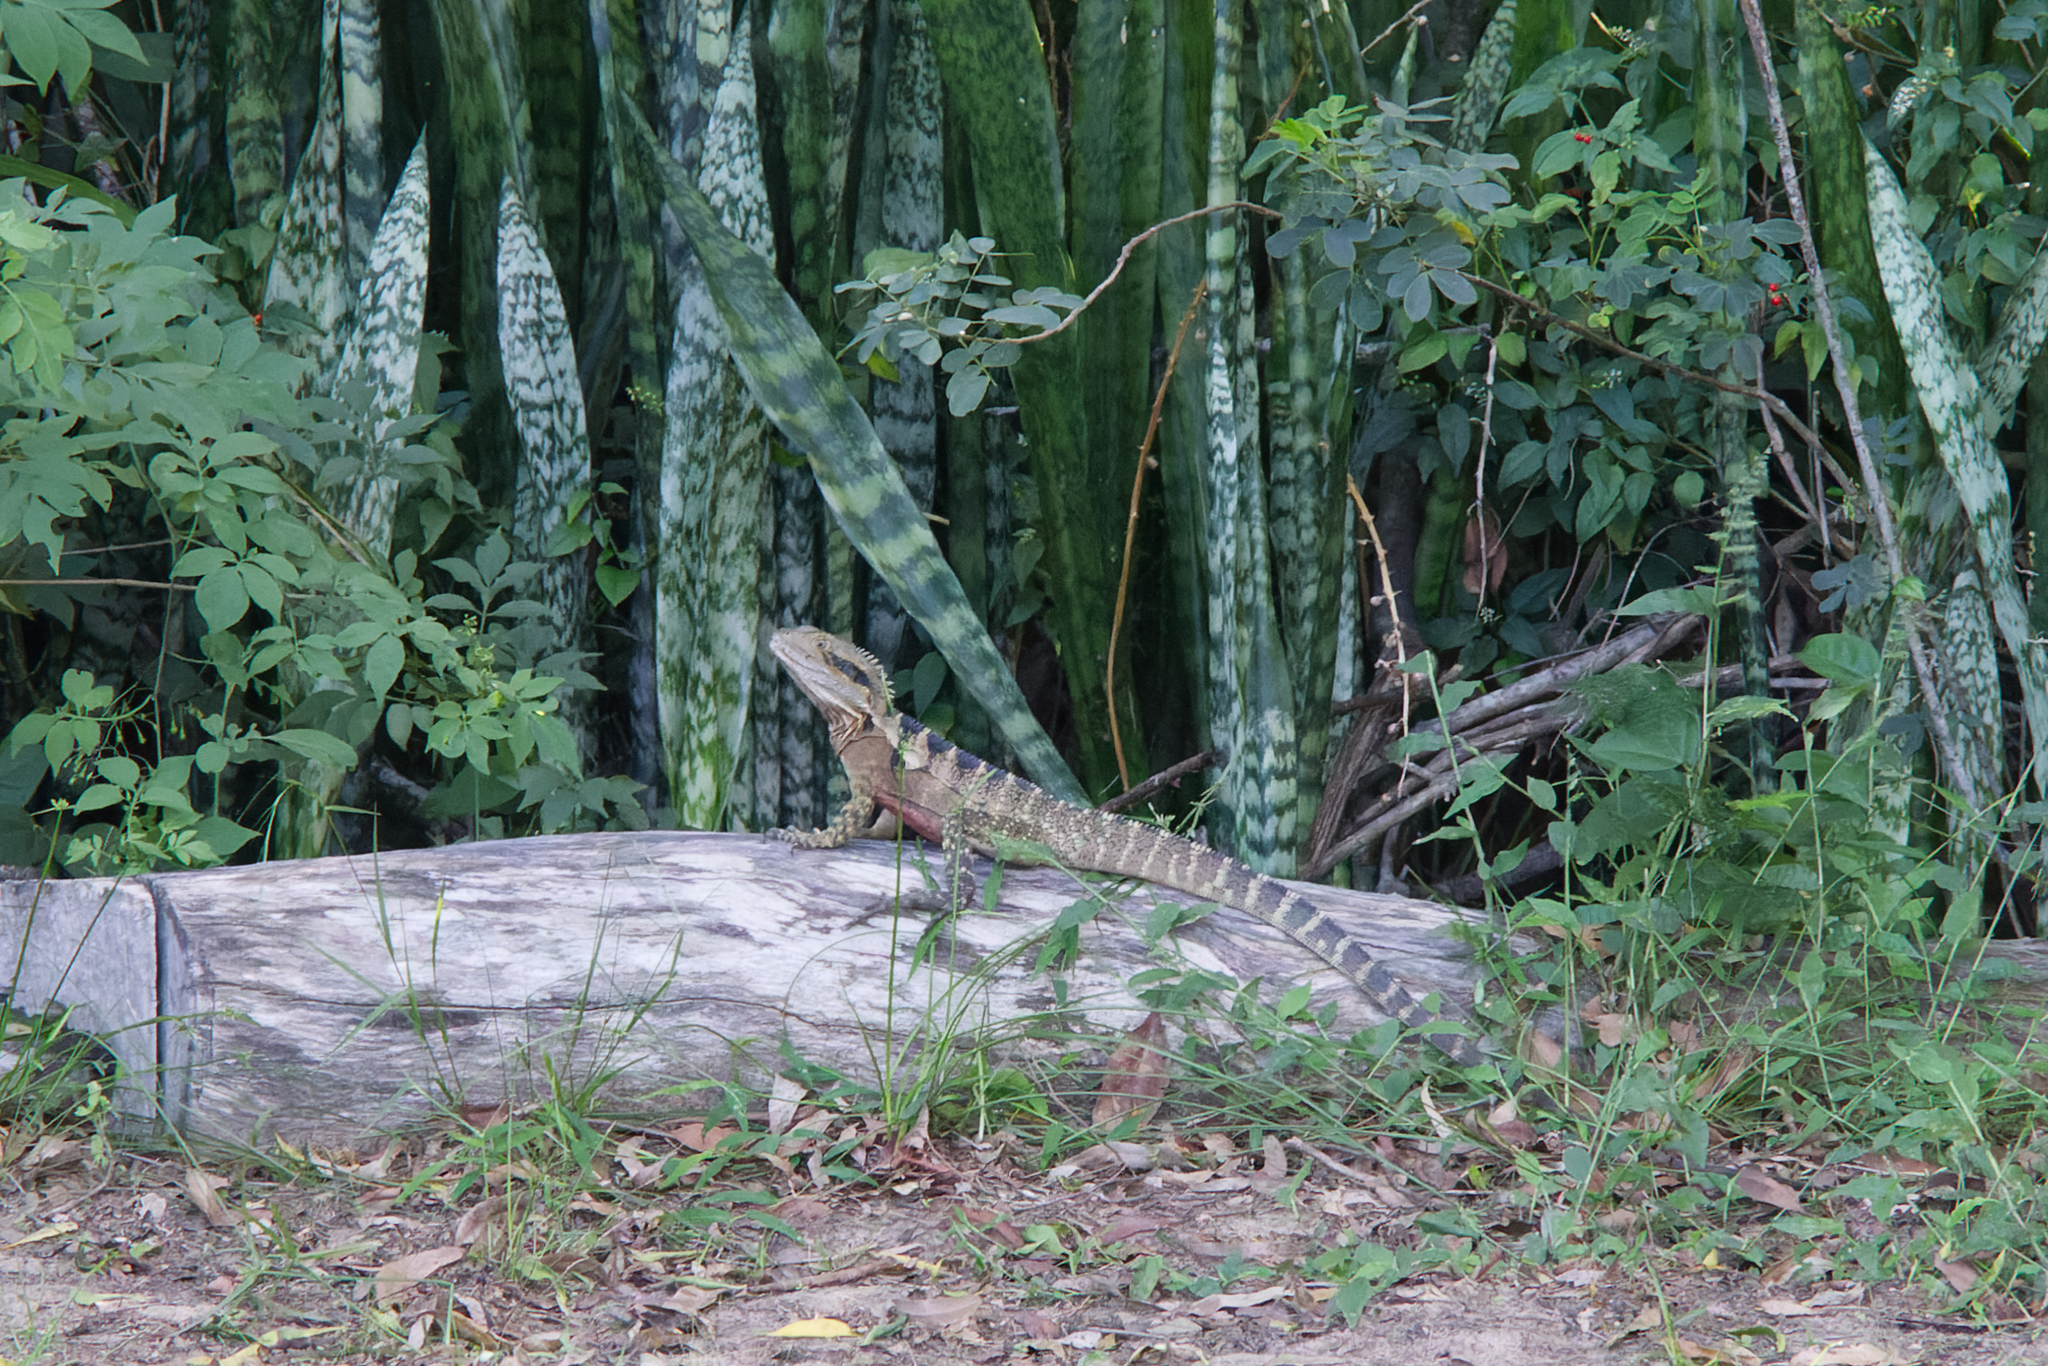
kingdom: Animalia
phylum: Chordata
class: Squamata
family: Agamidae
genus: Intellagama
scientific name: Intellagama lesueurii
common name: Eastern water dragon
